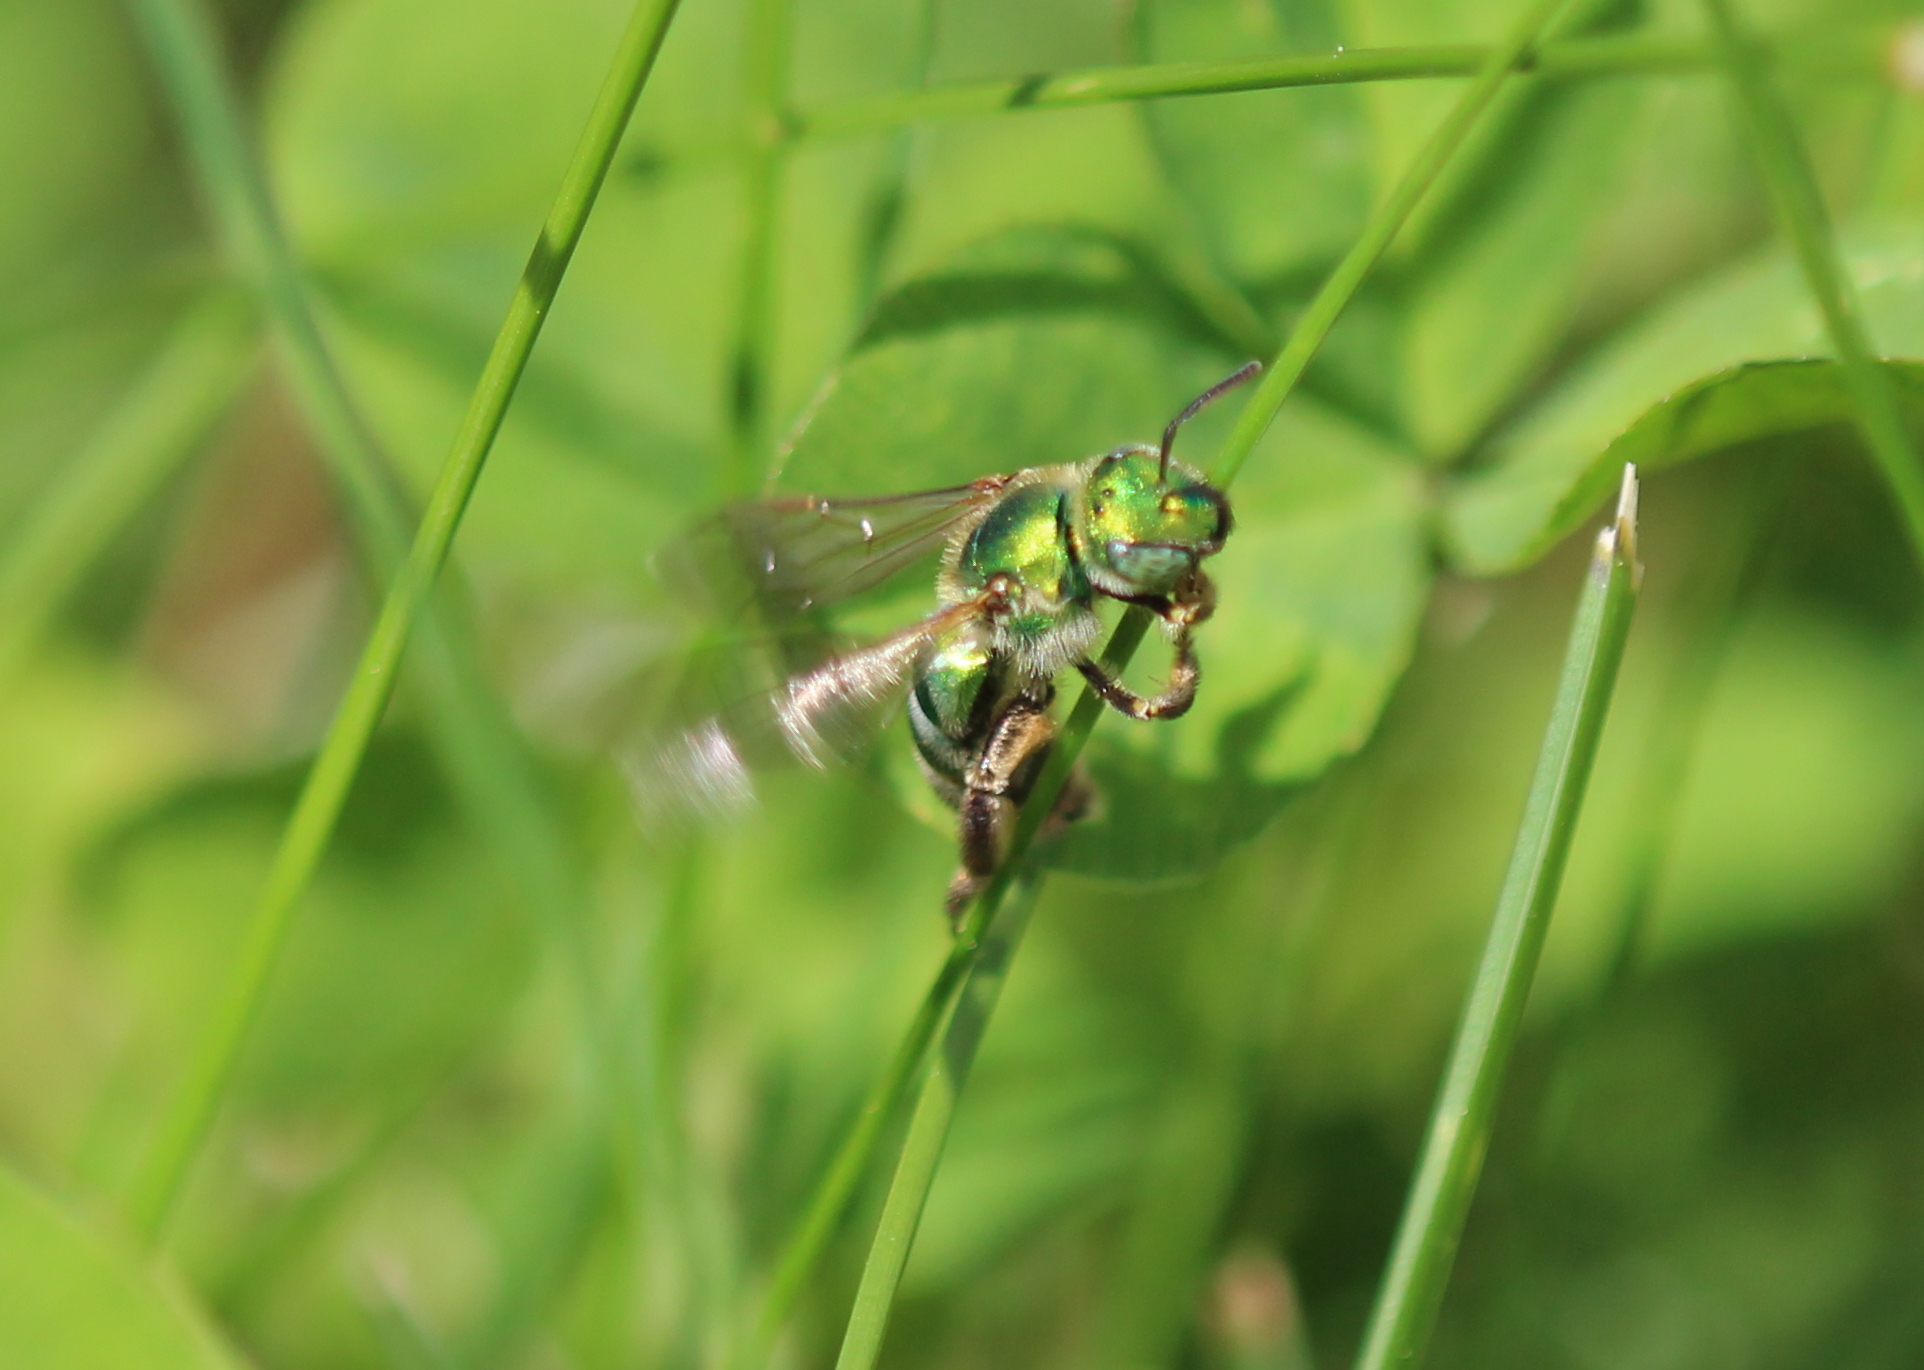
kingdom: Animalia
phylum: Arthropoda
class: Insecta
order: Hymenoptera
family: Halictidae
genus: Agapostemon
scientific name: Agapostemon texanus
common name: Texas striped sweat bee
